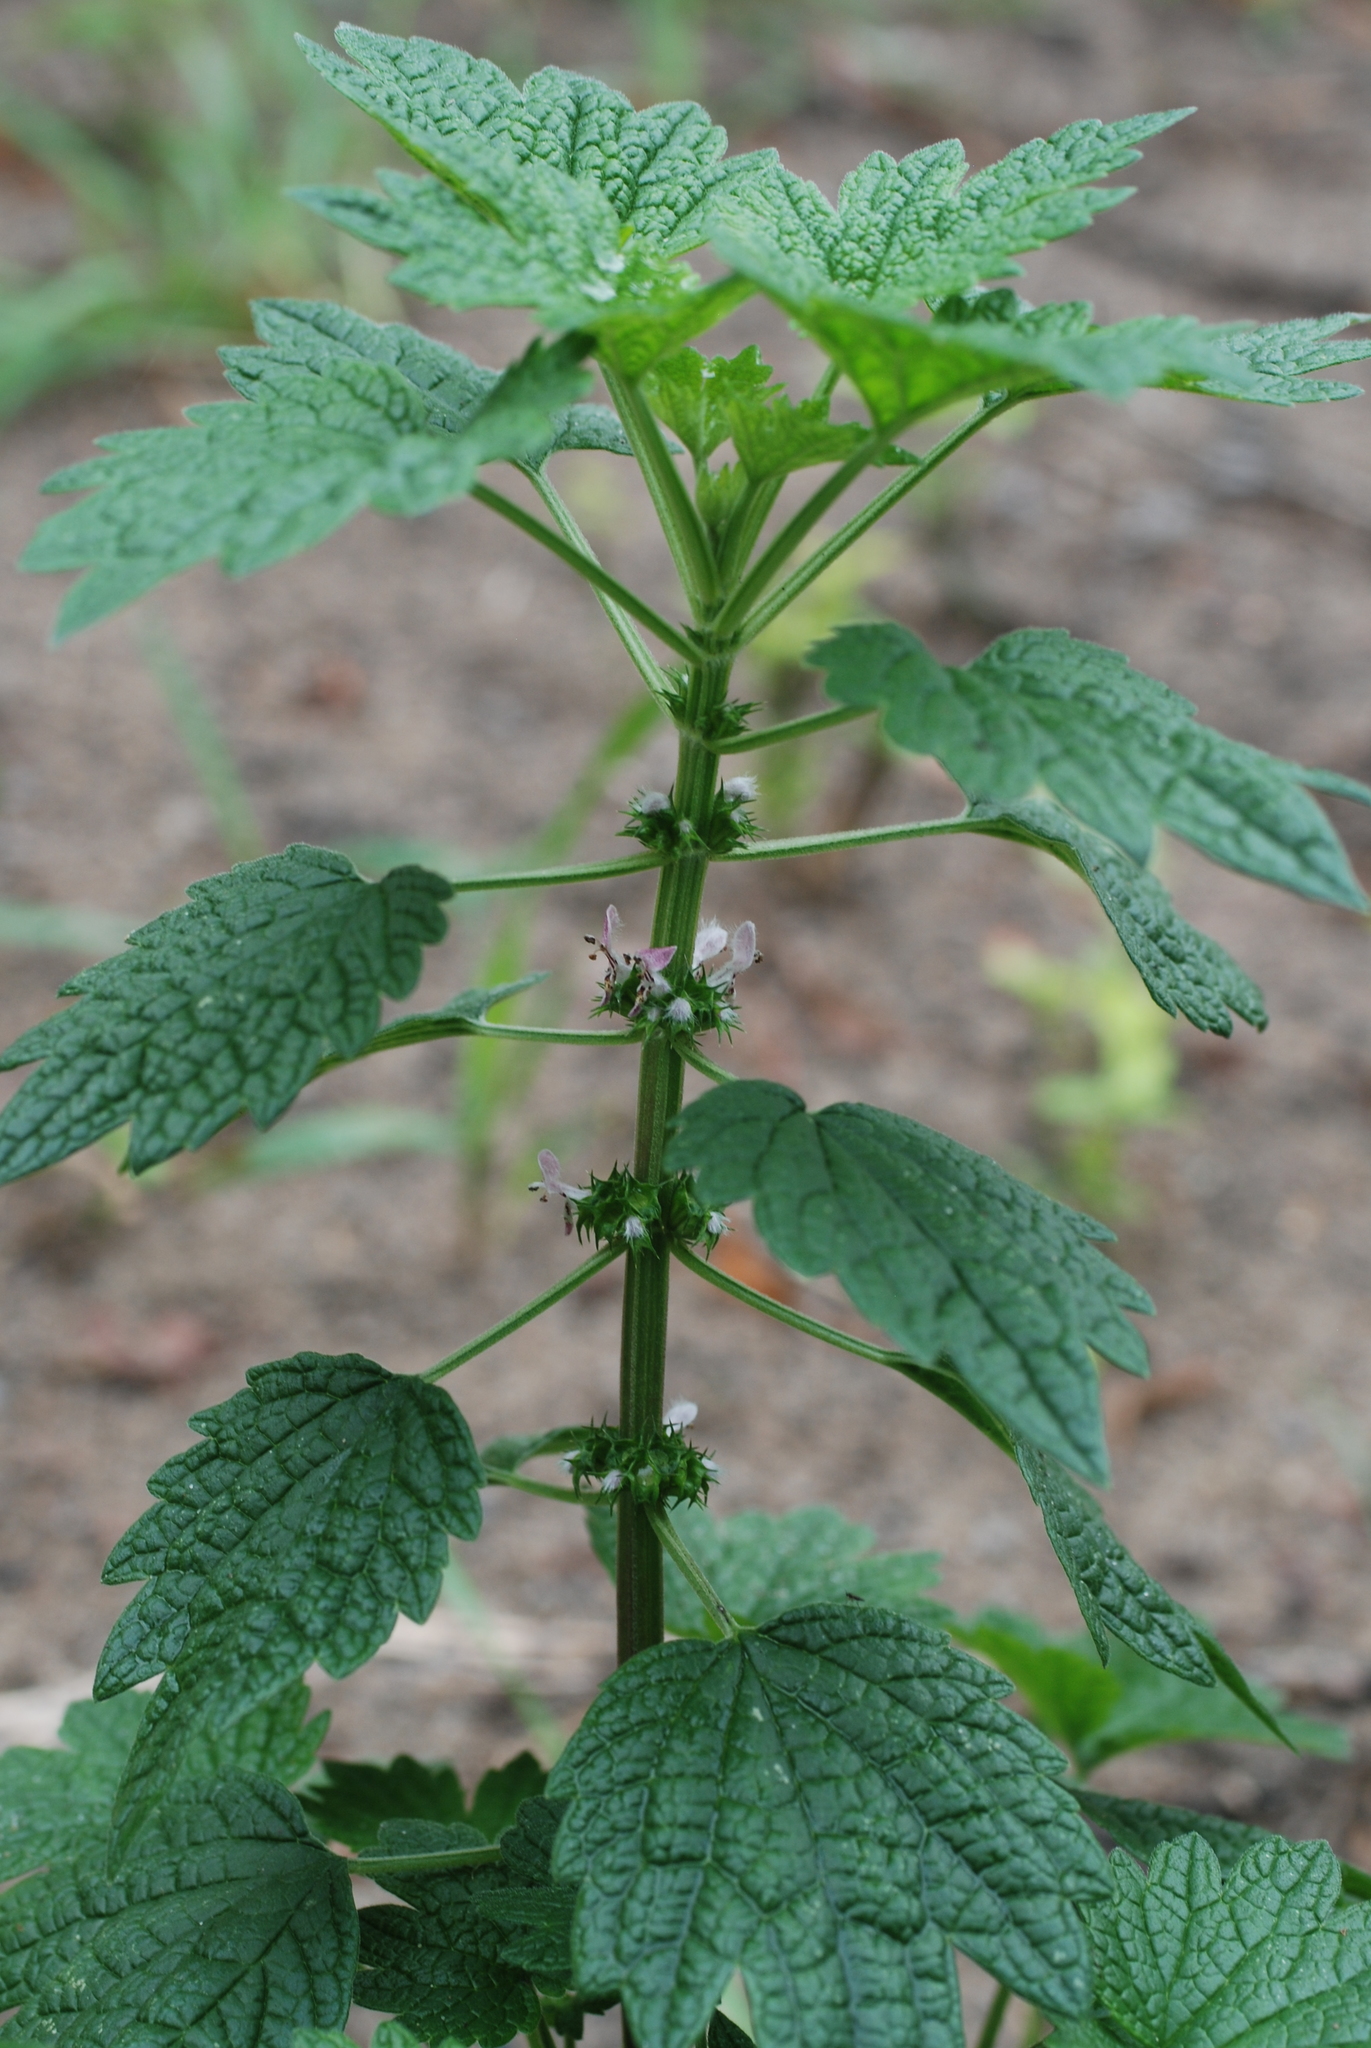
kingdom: Plantae
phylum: Tracheophyta
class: Magnoliopsida
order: Lamiales
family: Lamiaceae
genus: Leonurus
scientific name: Leonurus cardiaca
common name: Motherwort
